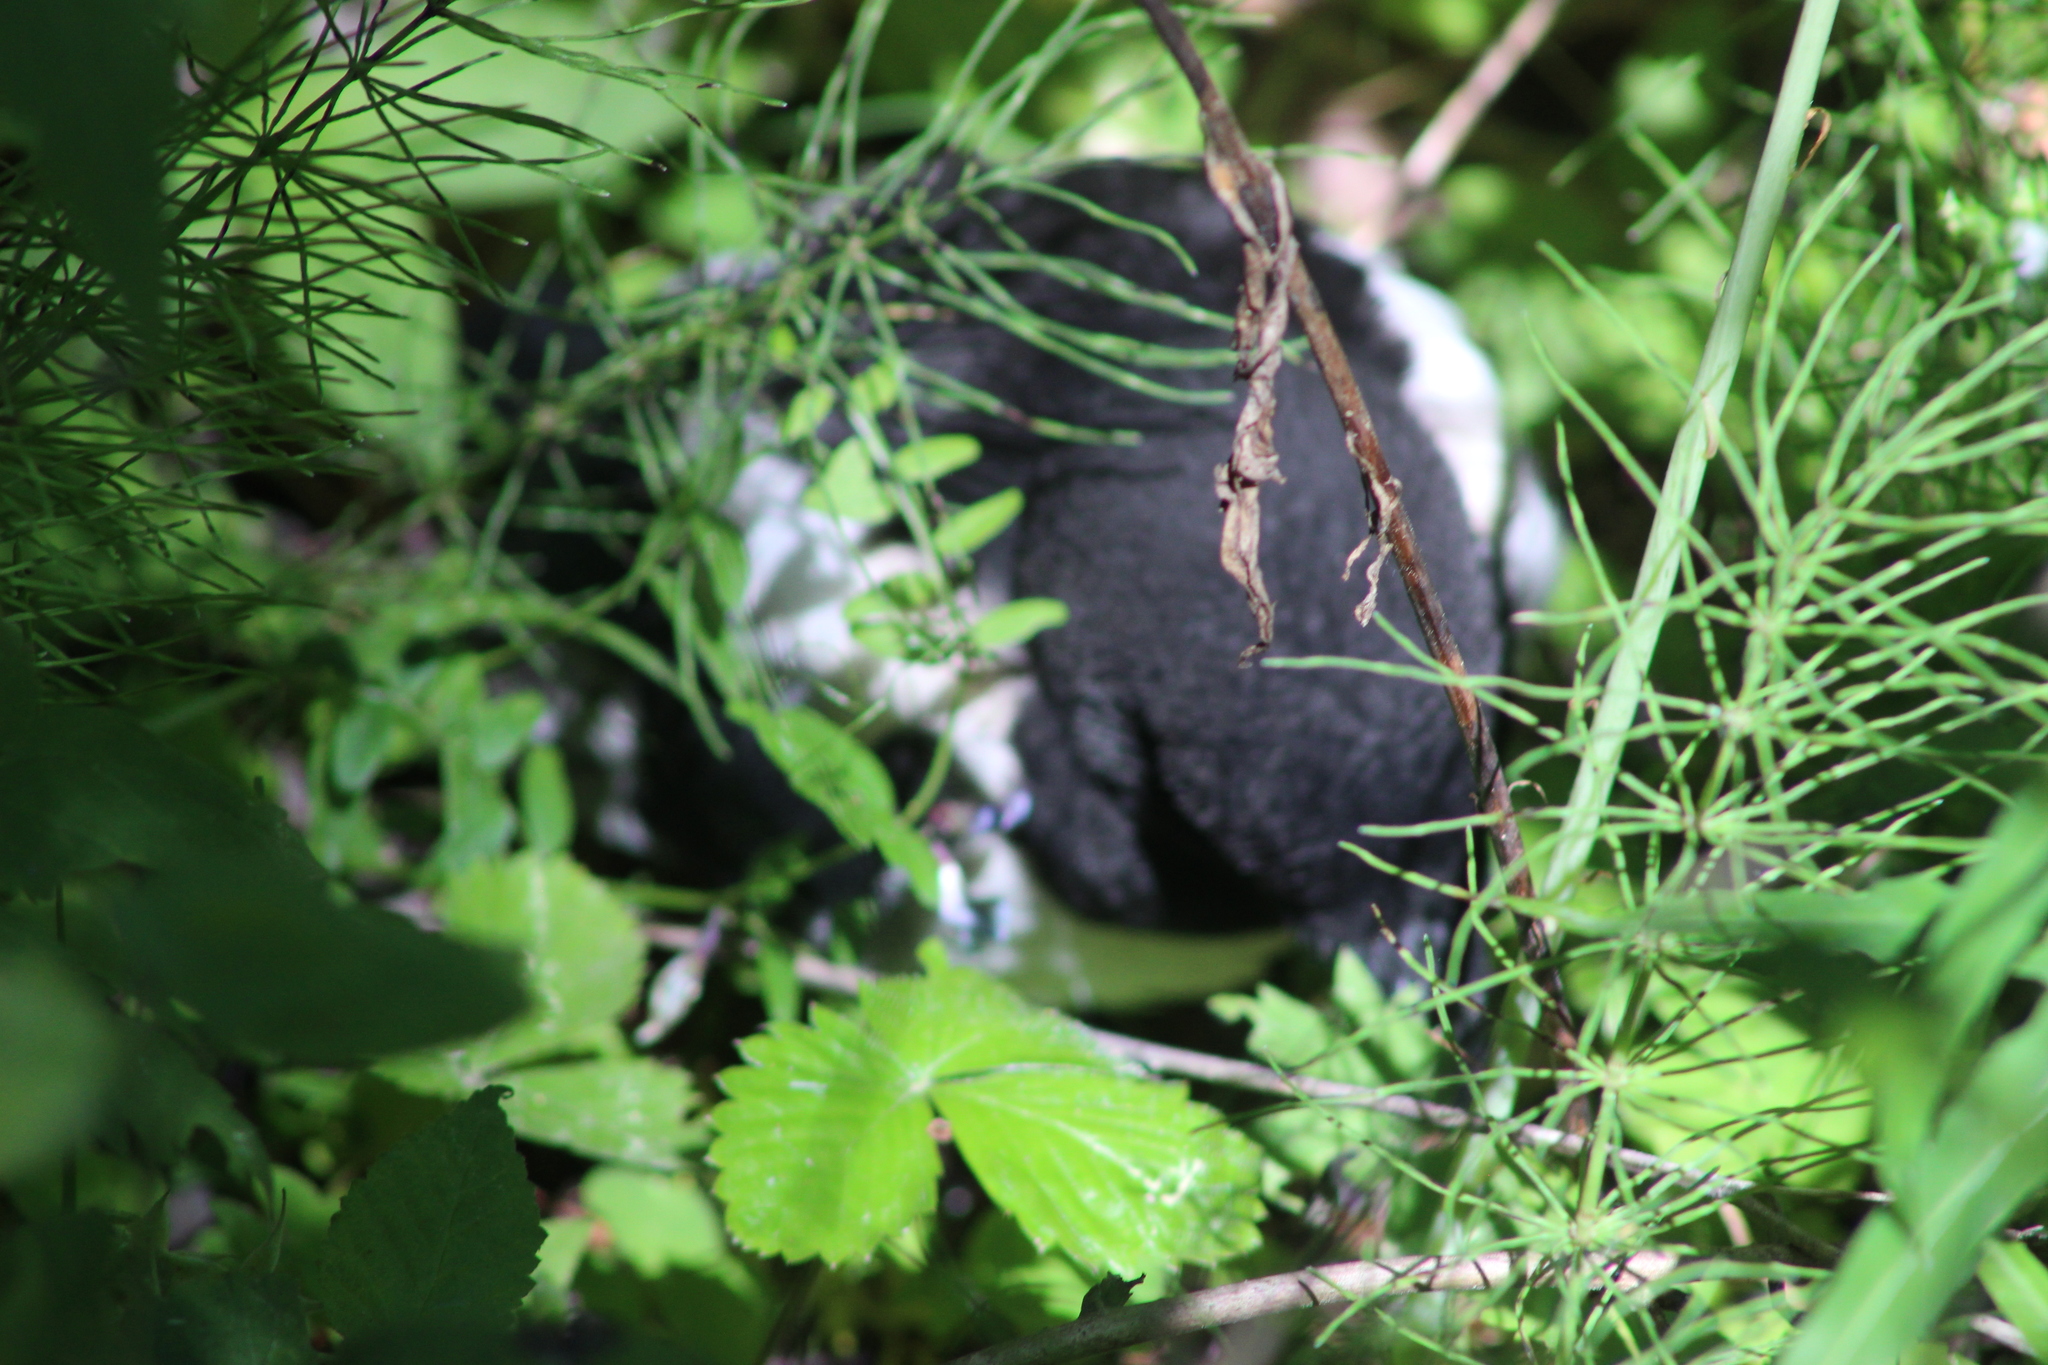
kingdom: Animalia
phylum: Chordata
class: Aves
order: Passeriformes
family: Corvidae
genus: Pica
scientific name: Pica pica
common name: Eurasian magpie
